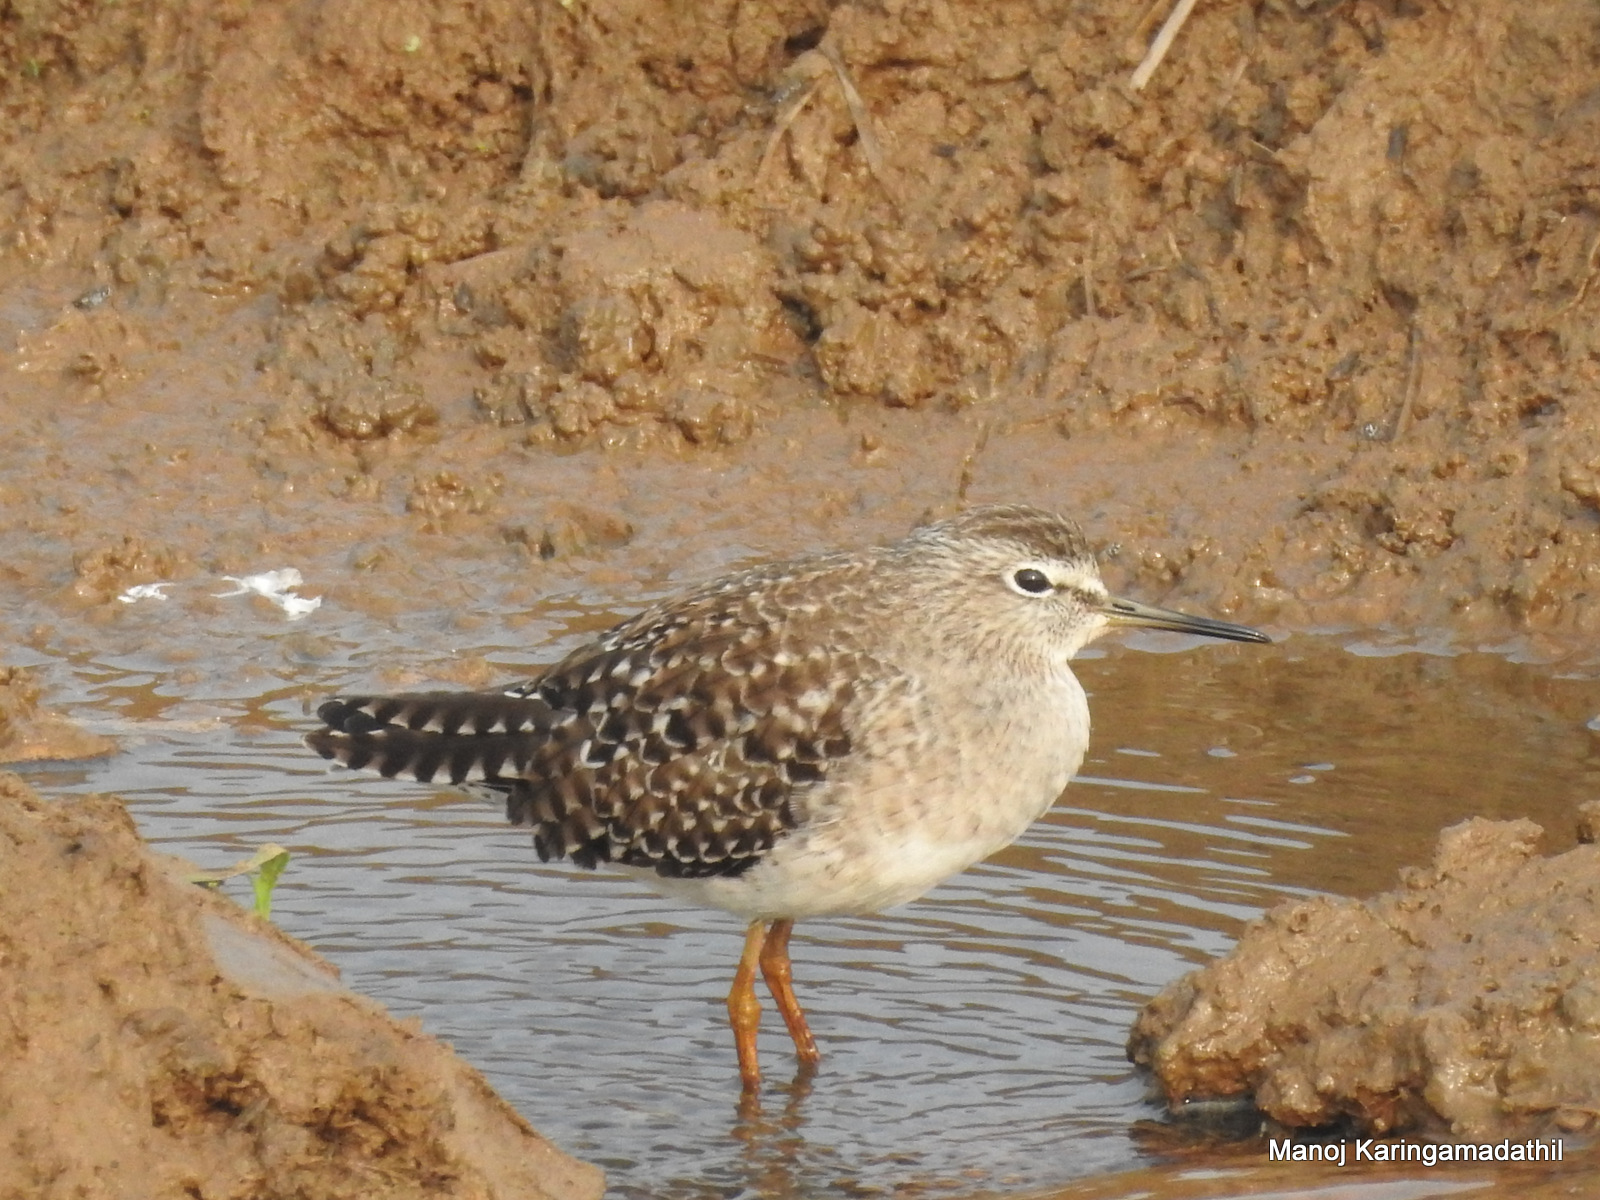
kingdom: Animalia
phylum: Chordata
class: Aves
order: Charadriiformes
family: Scolopacidae
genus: Tringa
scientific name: Tringa glareola
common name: Wood sandpiper
